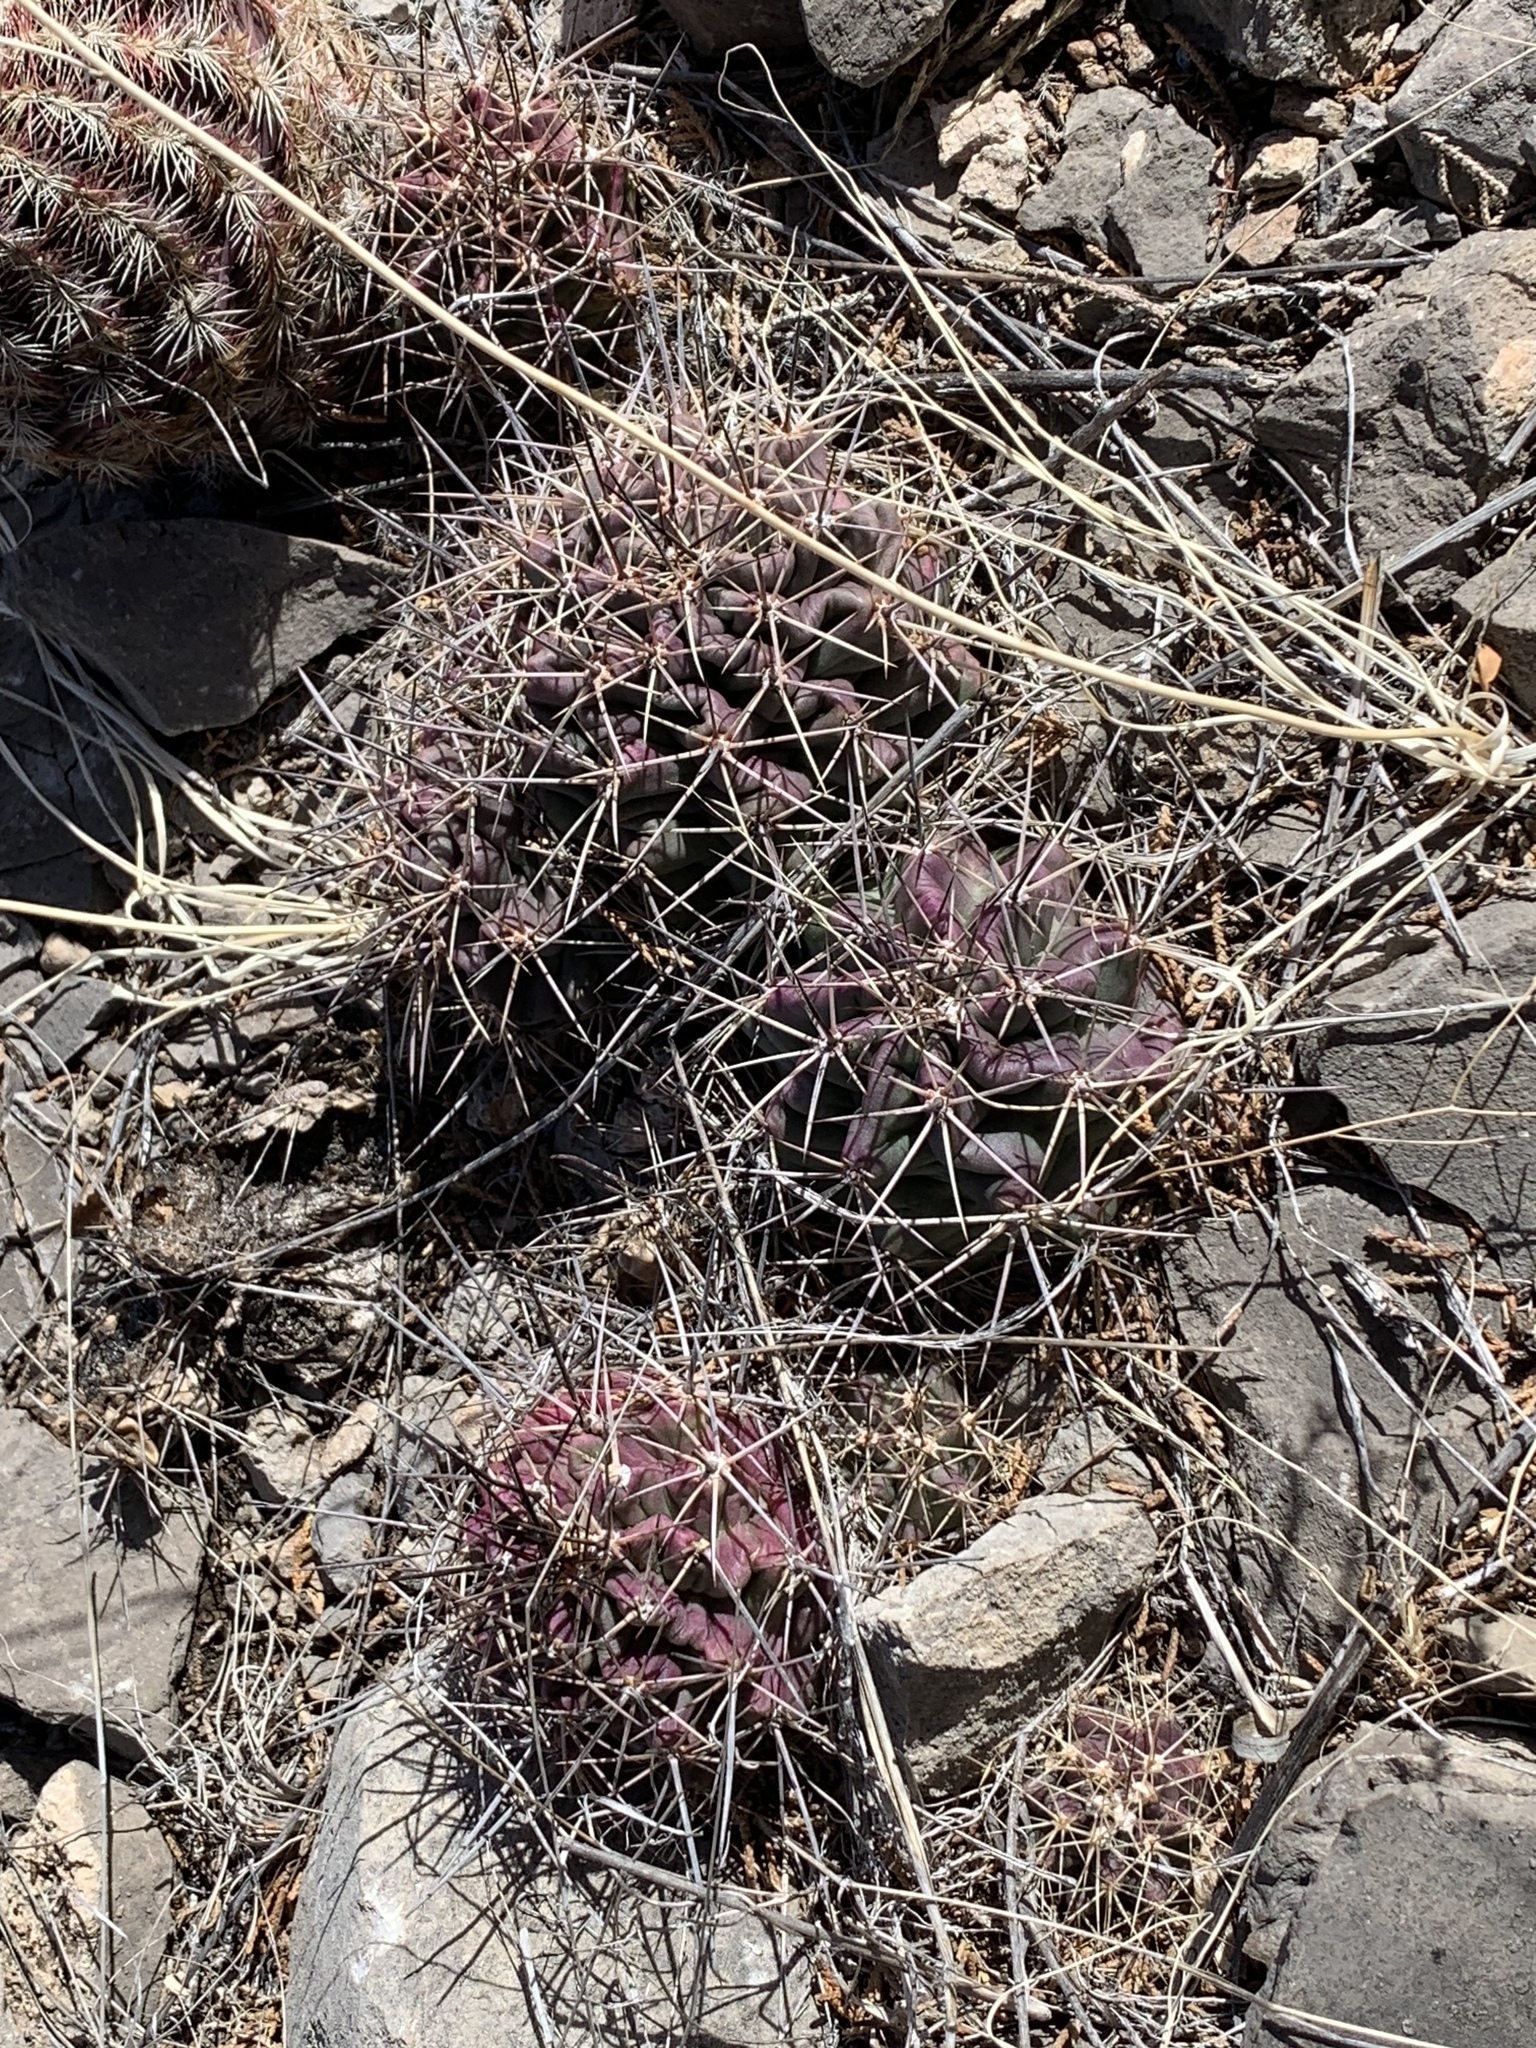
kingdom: Plantae
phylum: Tracheophyta
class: Magnoliopsida
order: Caryophyllales
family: Cactaceae
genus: Echinocereus
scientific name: Echinocereus coccineus
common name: Scarlet hedgehog cactus
